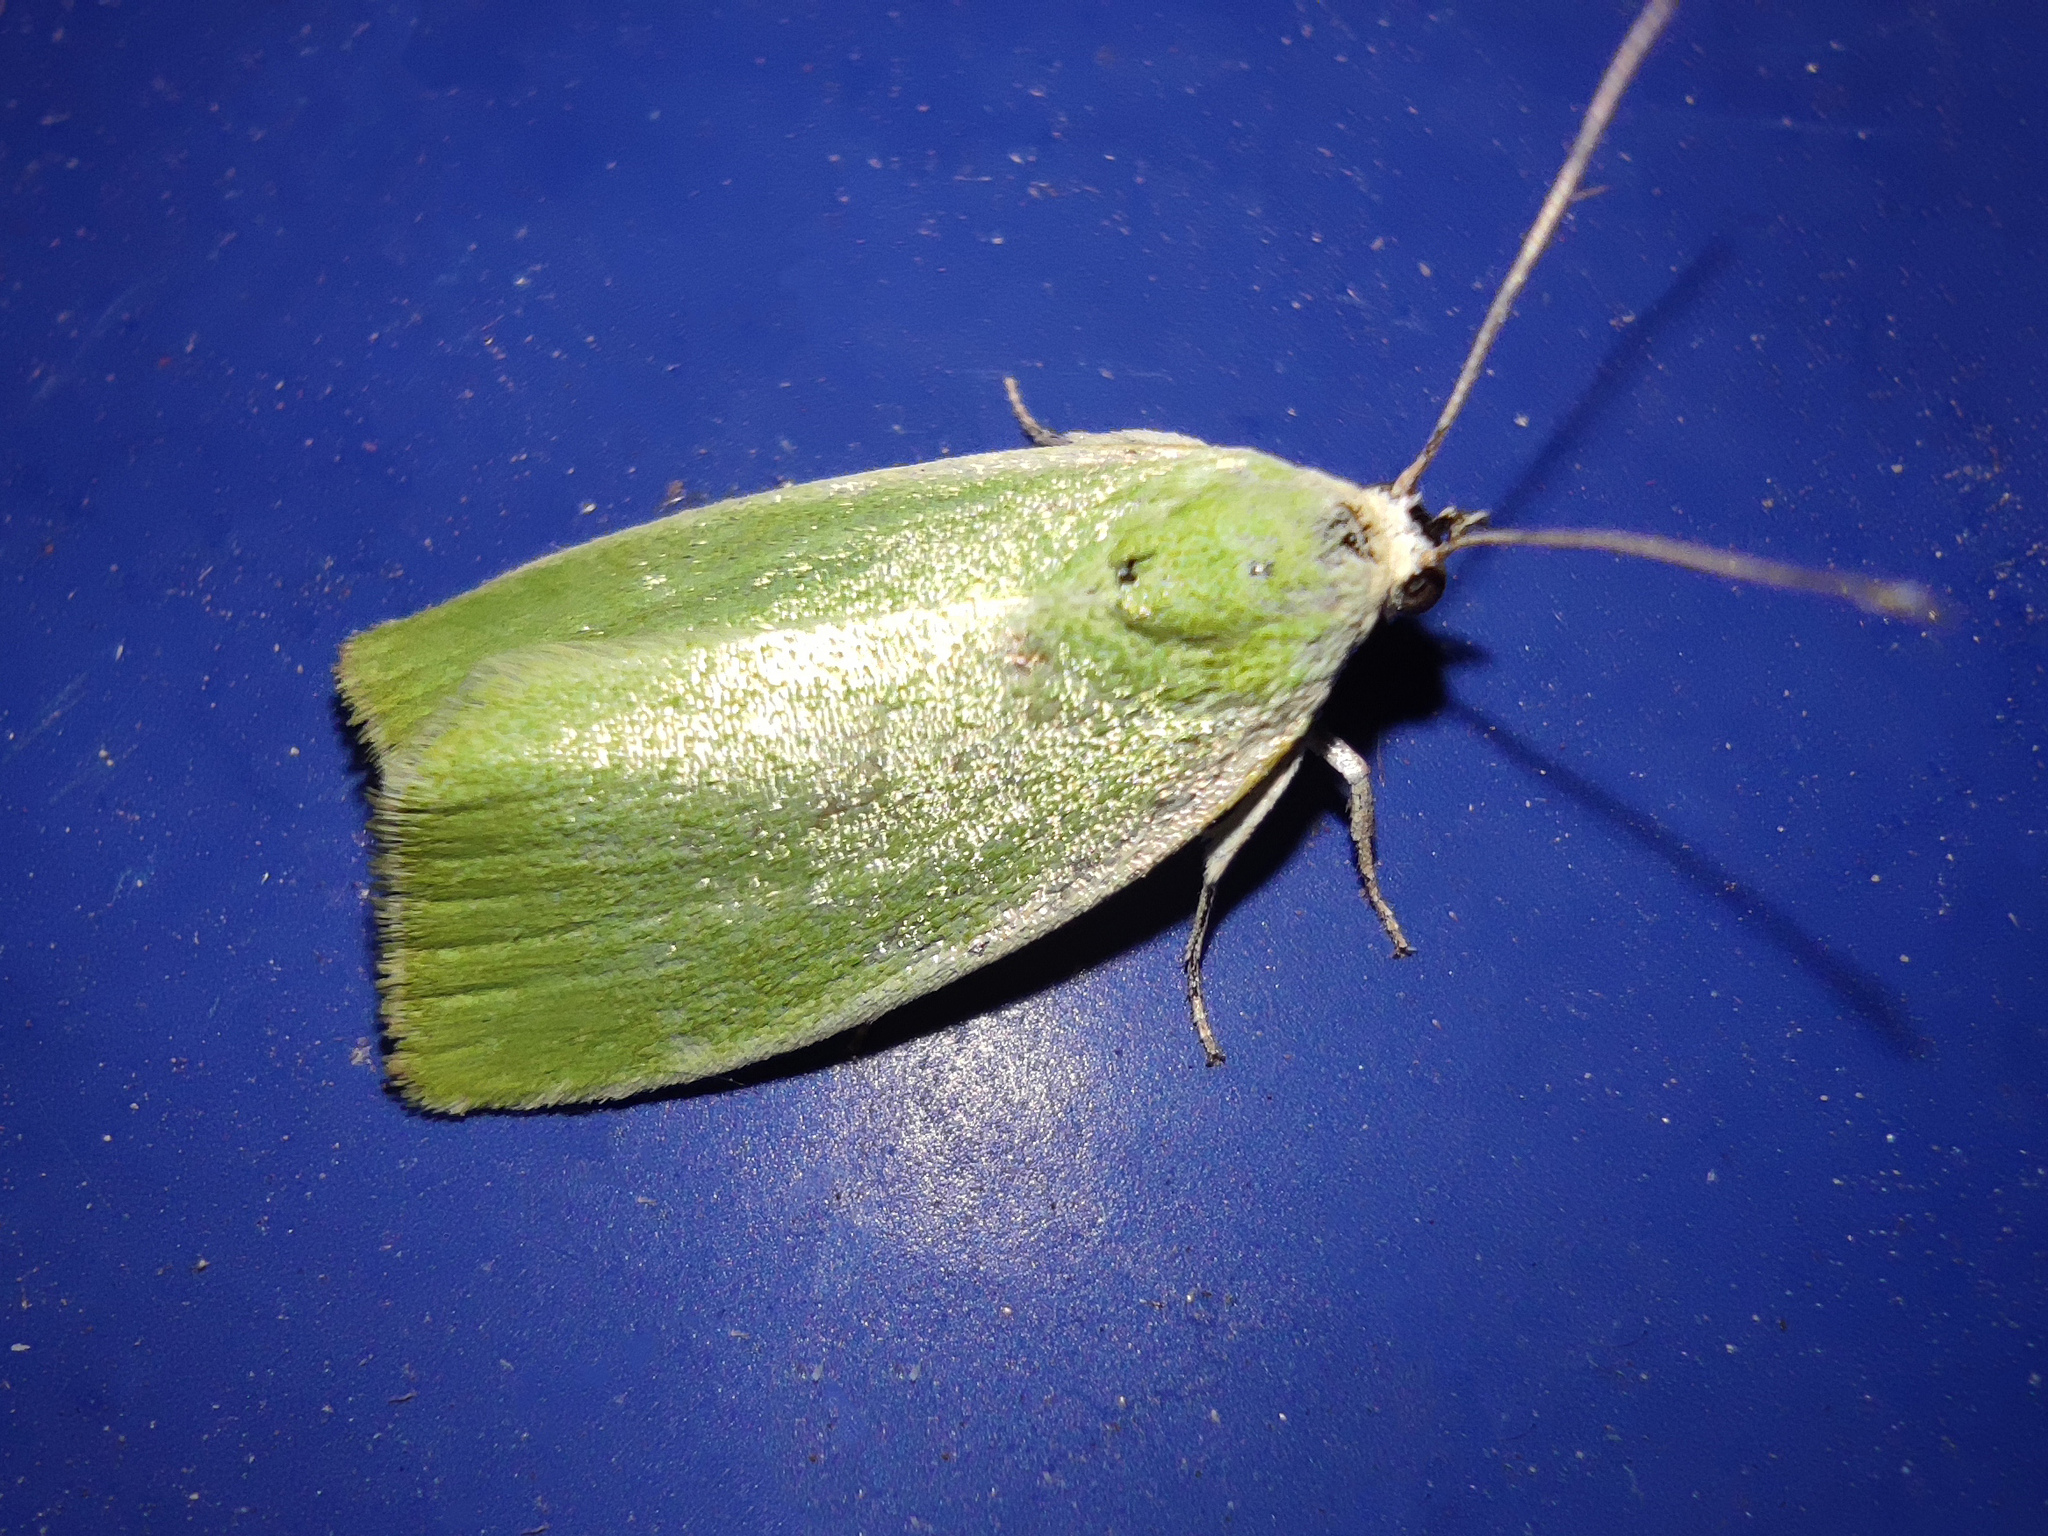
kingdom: Animalia
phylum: Arthropoda
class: Insecta
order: Lepidoptera
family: Nolidae
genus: Earias
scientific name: Earias clorana
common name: Cream-bordered green pea
